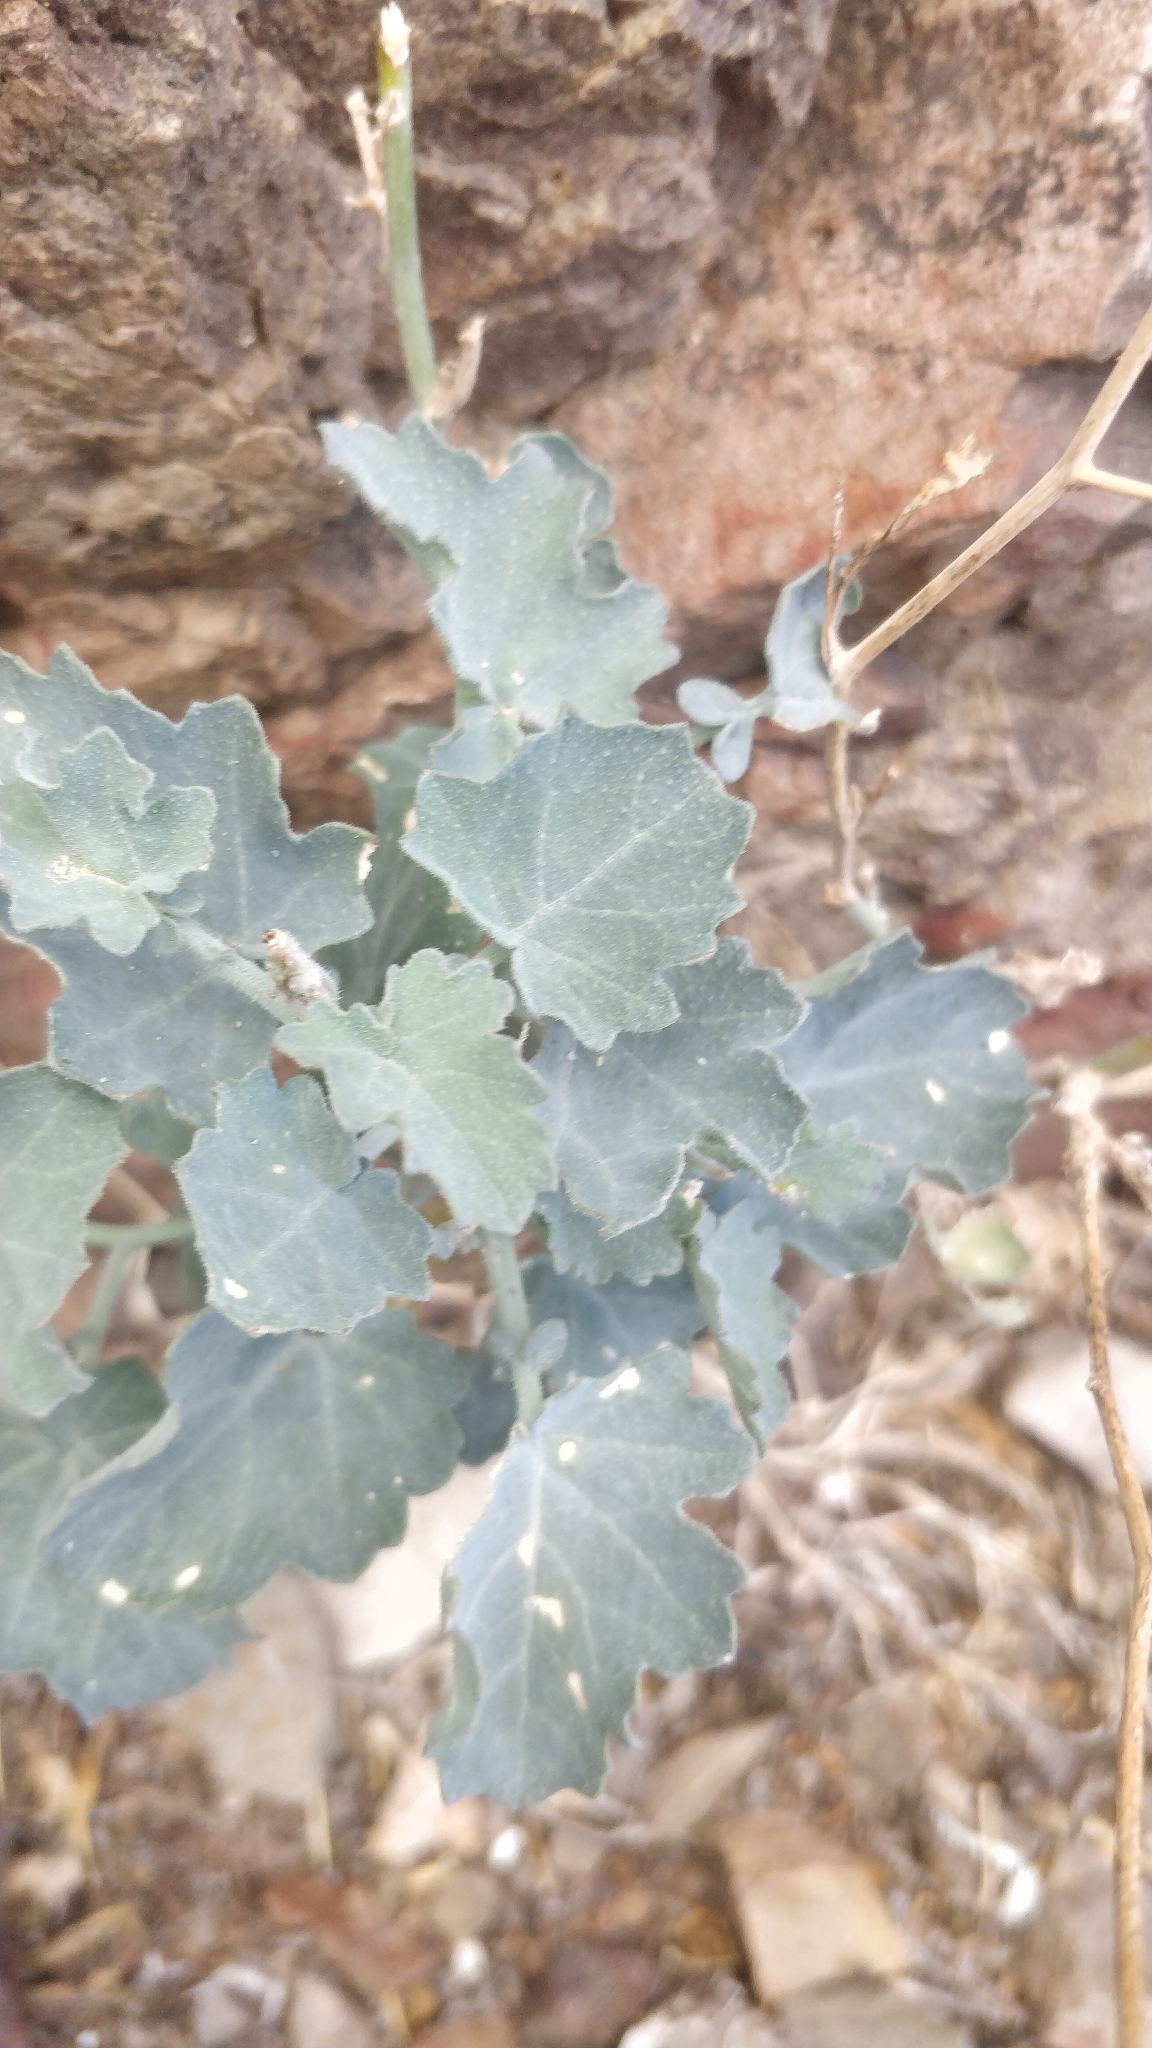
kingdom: Plantae
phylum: Tracheophyta
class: Magnoliopsida
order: Brassicales
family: Brassicaceae
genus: Crambe
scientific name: Crambe fruticosa
